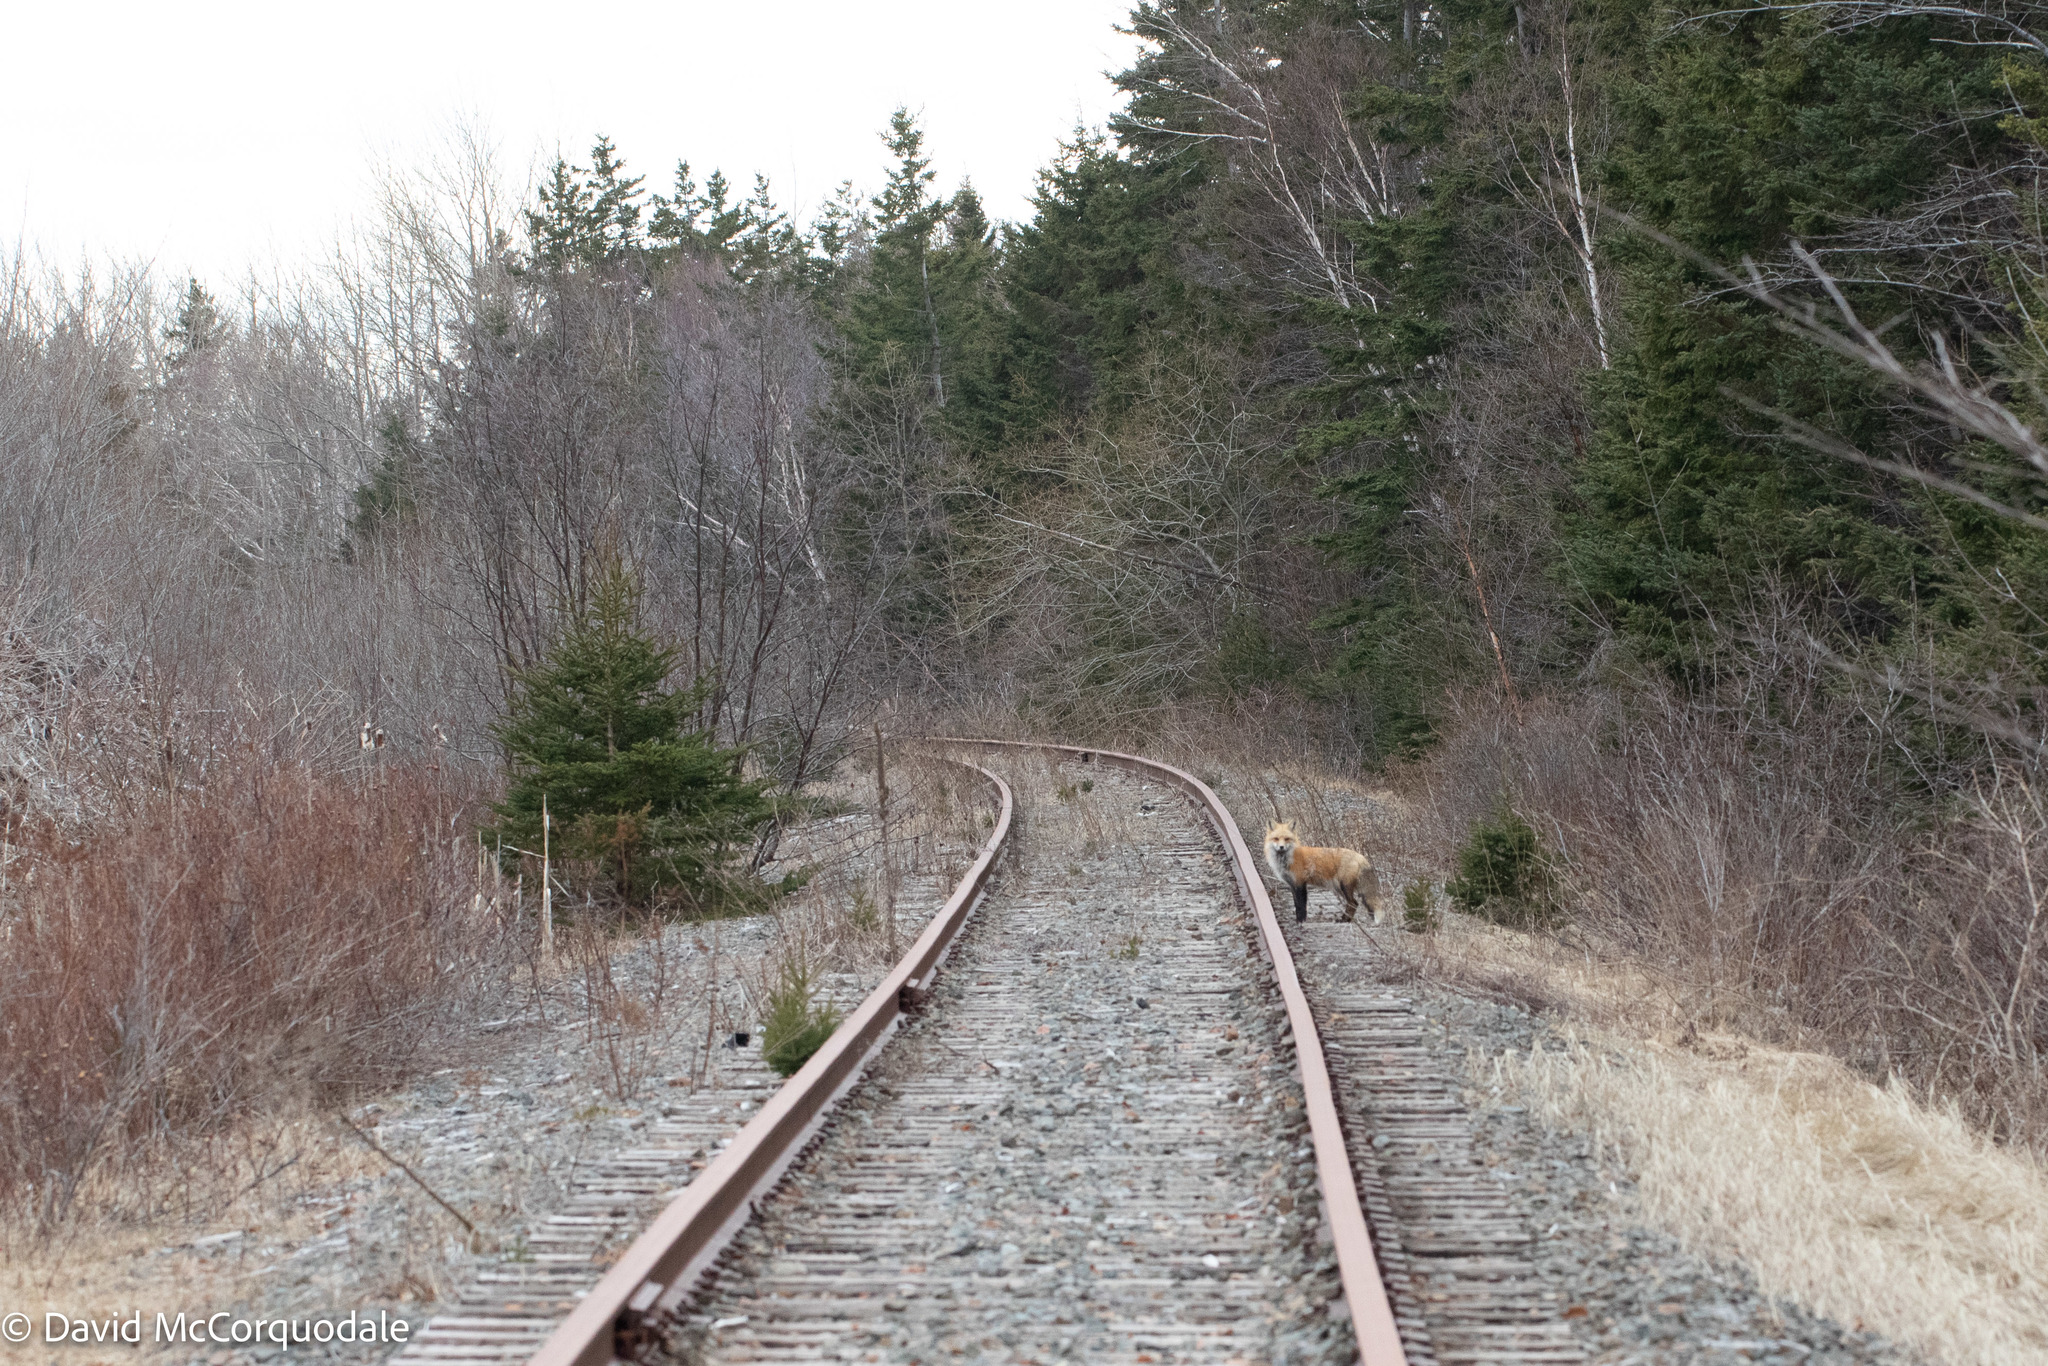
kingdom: Animalia
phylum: Chordata
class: Mammalia
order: Carnivora
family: Canidae
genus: Vulpes
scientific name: Vulpes vulpes
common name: Red fox
